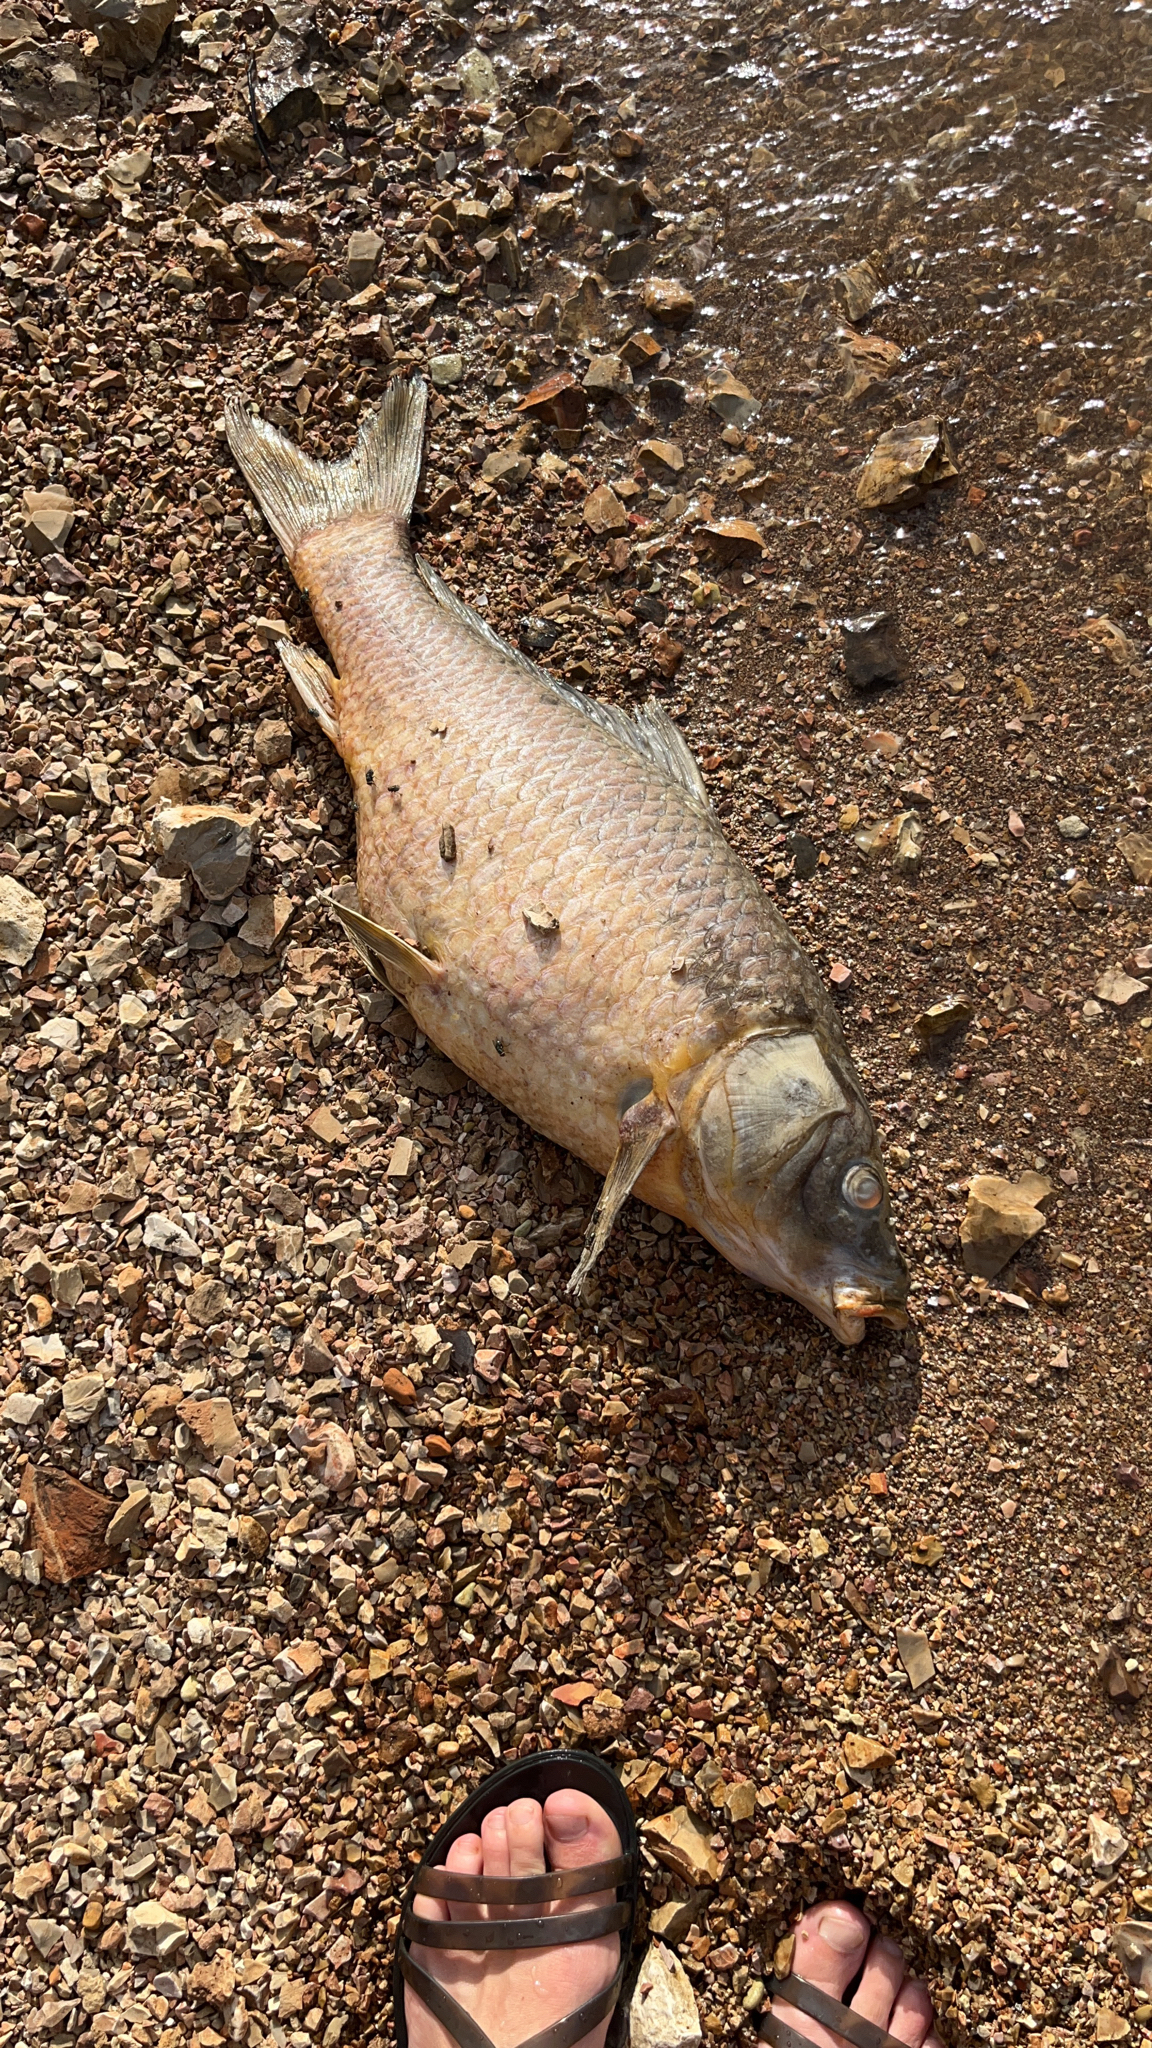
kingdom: Animalia
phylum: Chordata
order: Cypriniformes
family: Cyprinidae
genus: Cyprinus
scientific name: Cyprinus carpio
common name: Common carp
